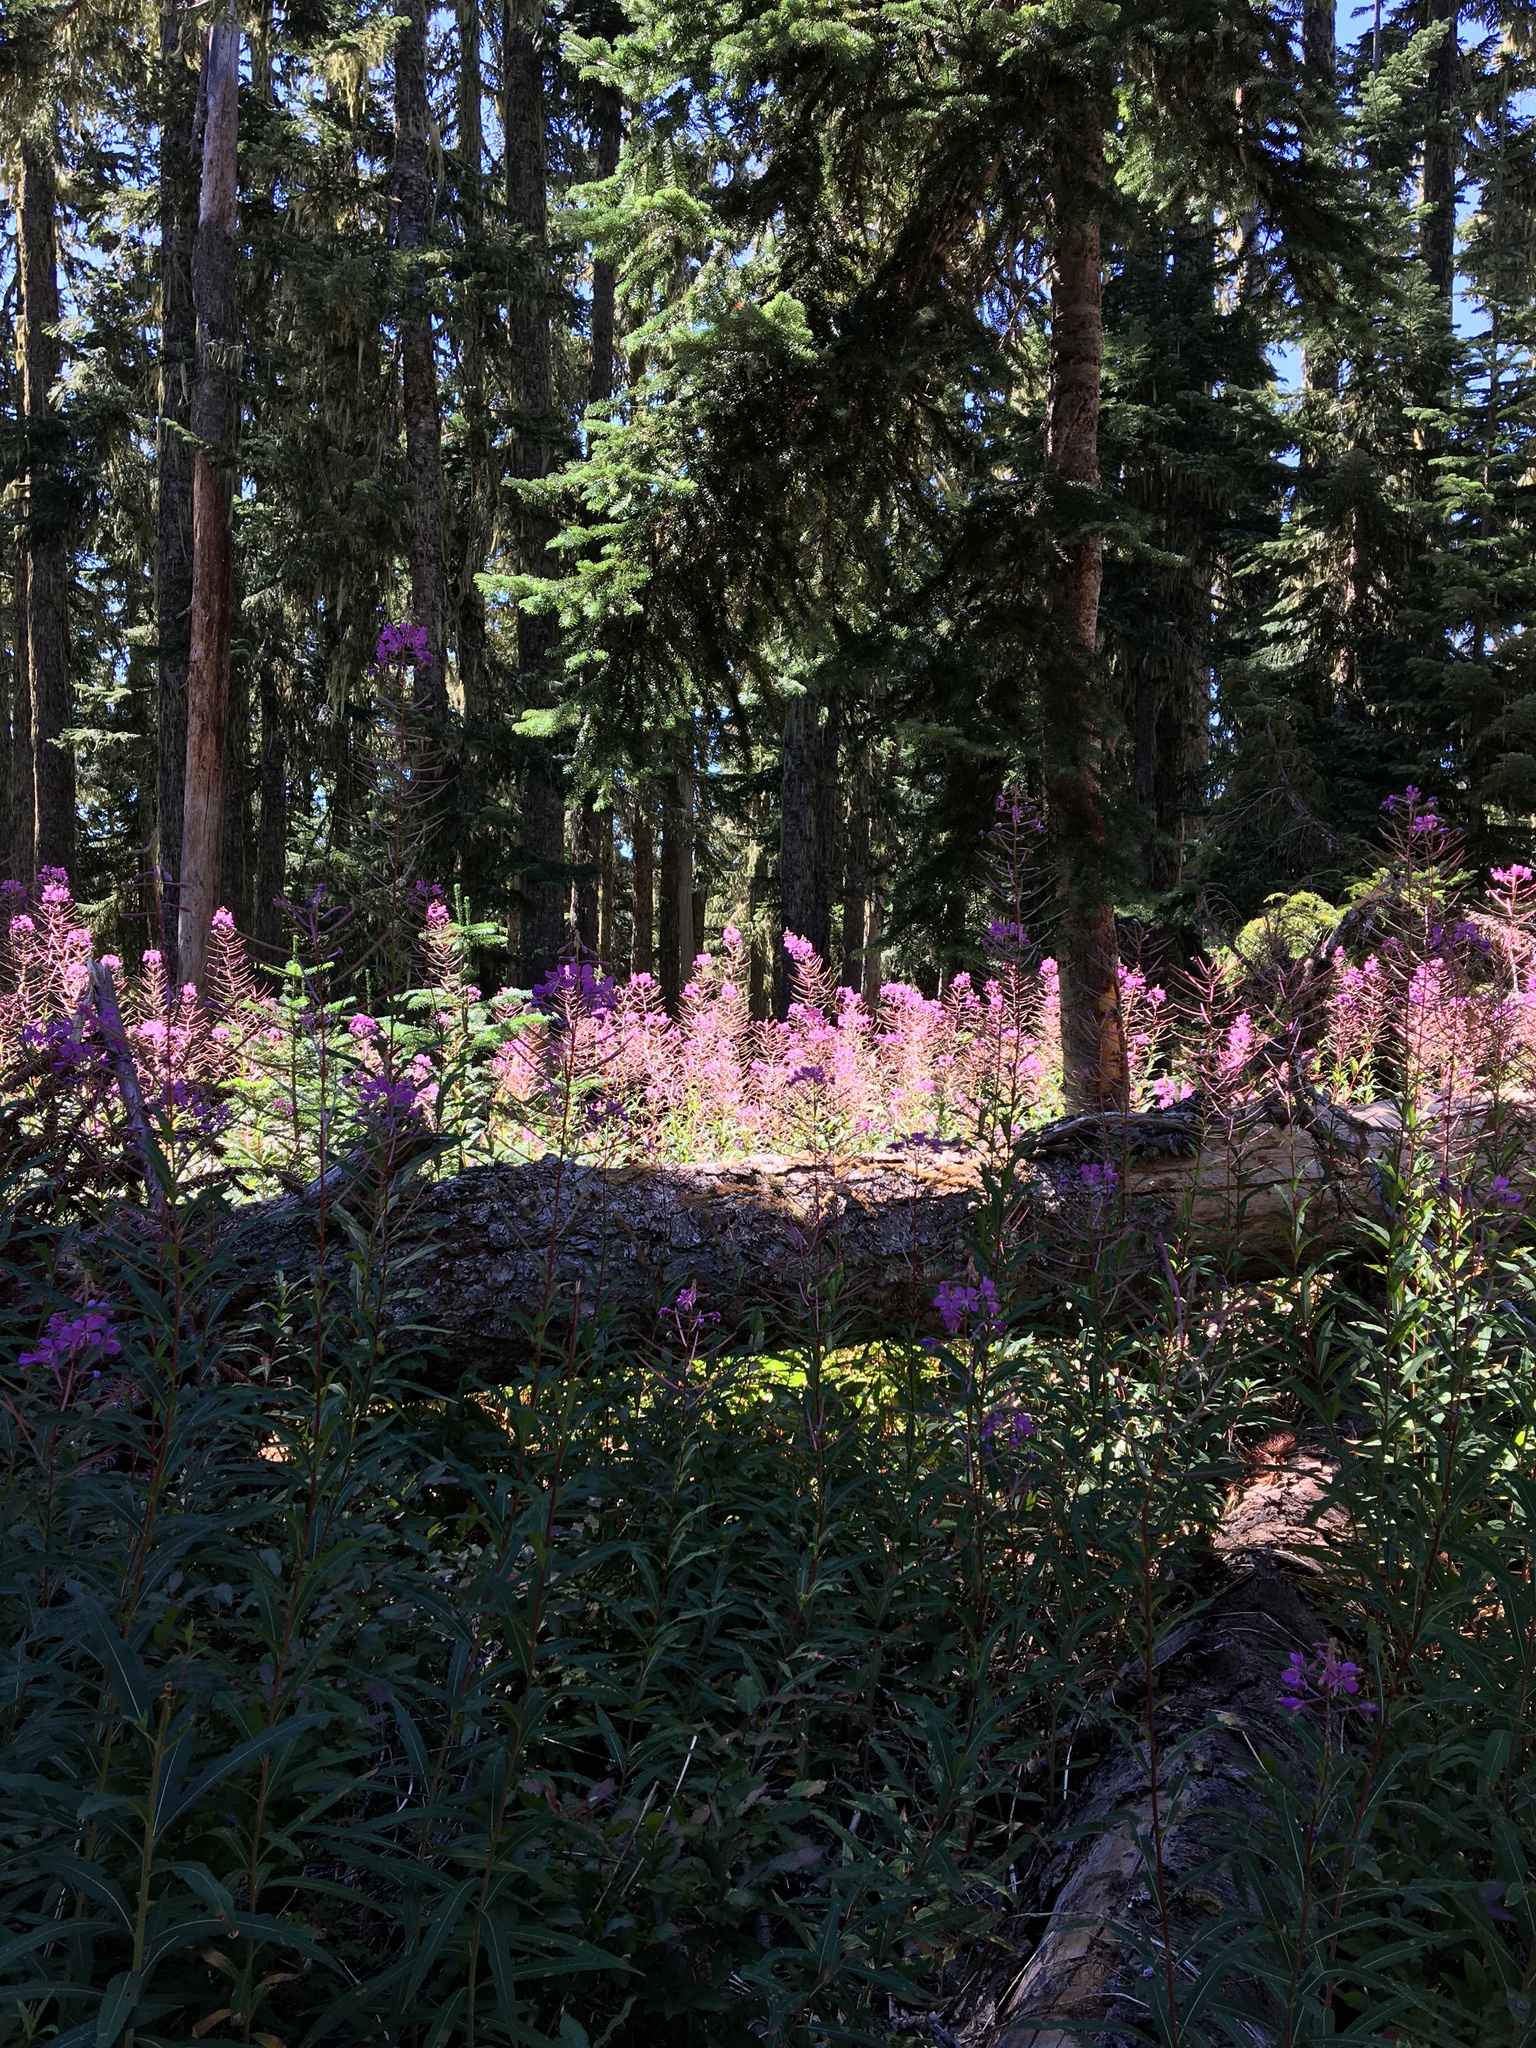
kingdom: Plantae
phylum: Tracheophyta
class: Magnoliopsida
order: Myrtales
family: Onagraceae
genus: Chamaenerion
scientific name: Chamaenerion angustifolium
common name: Fireweed
